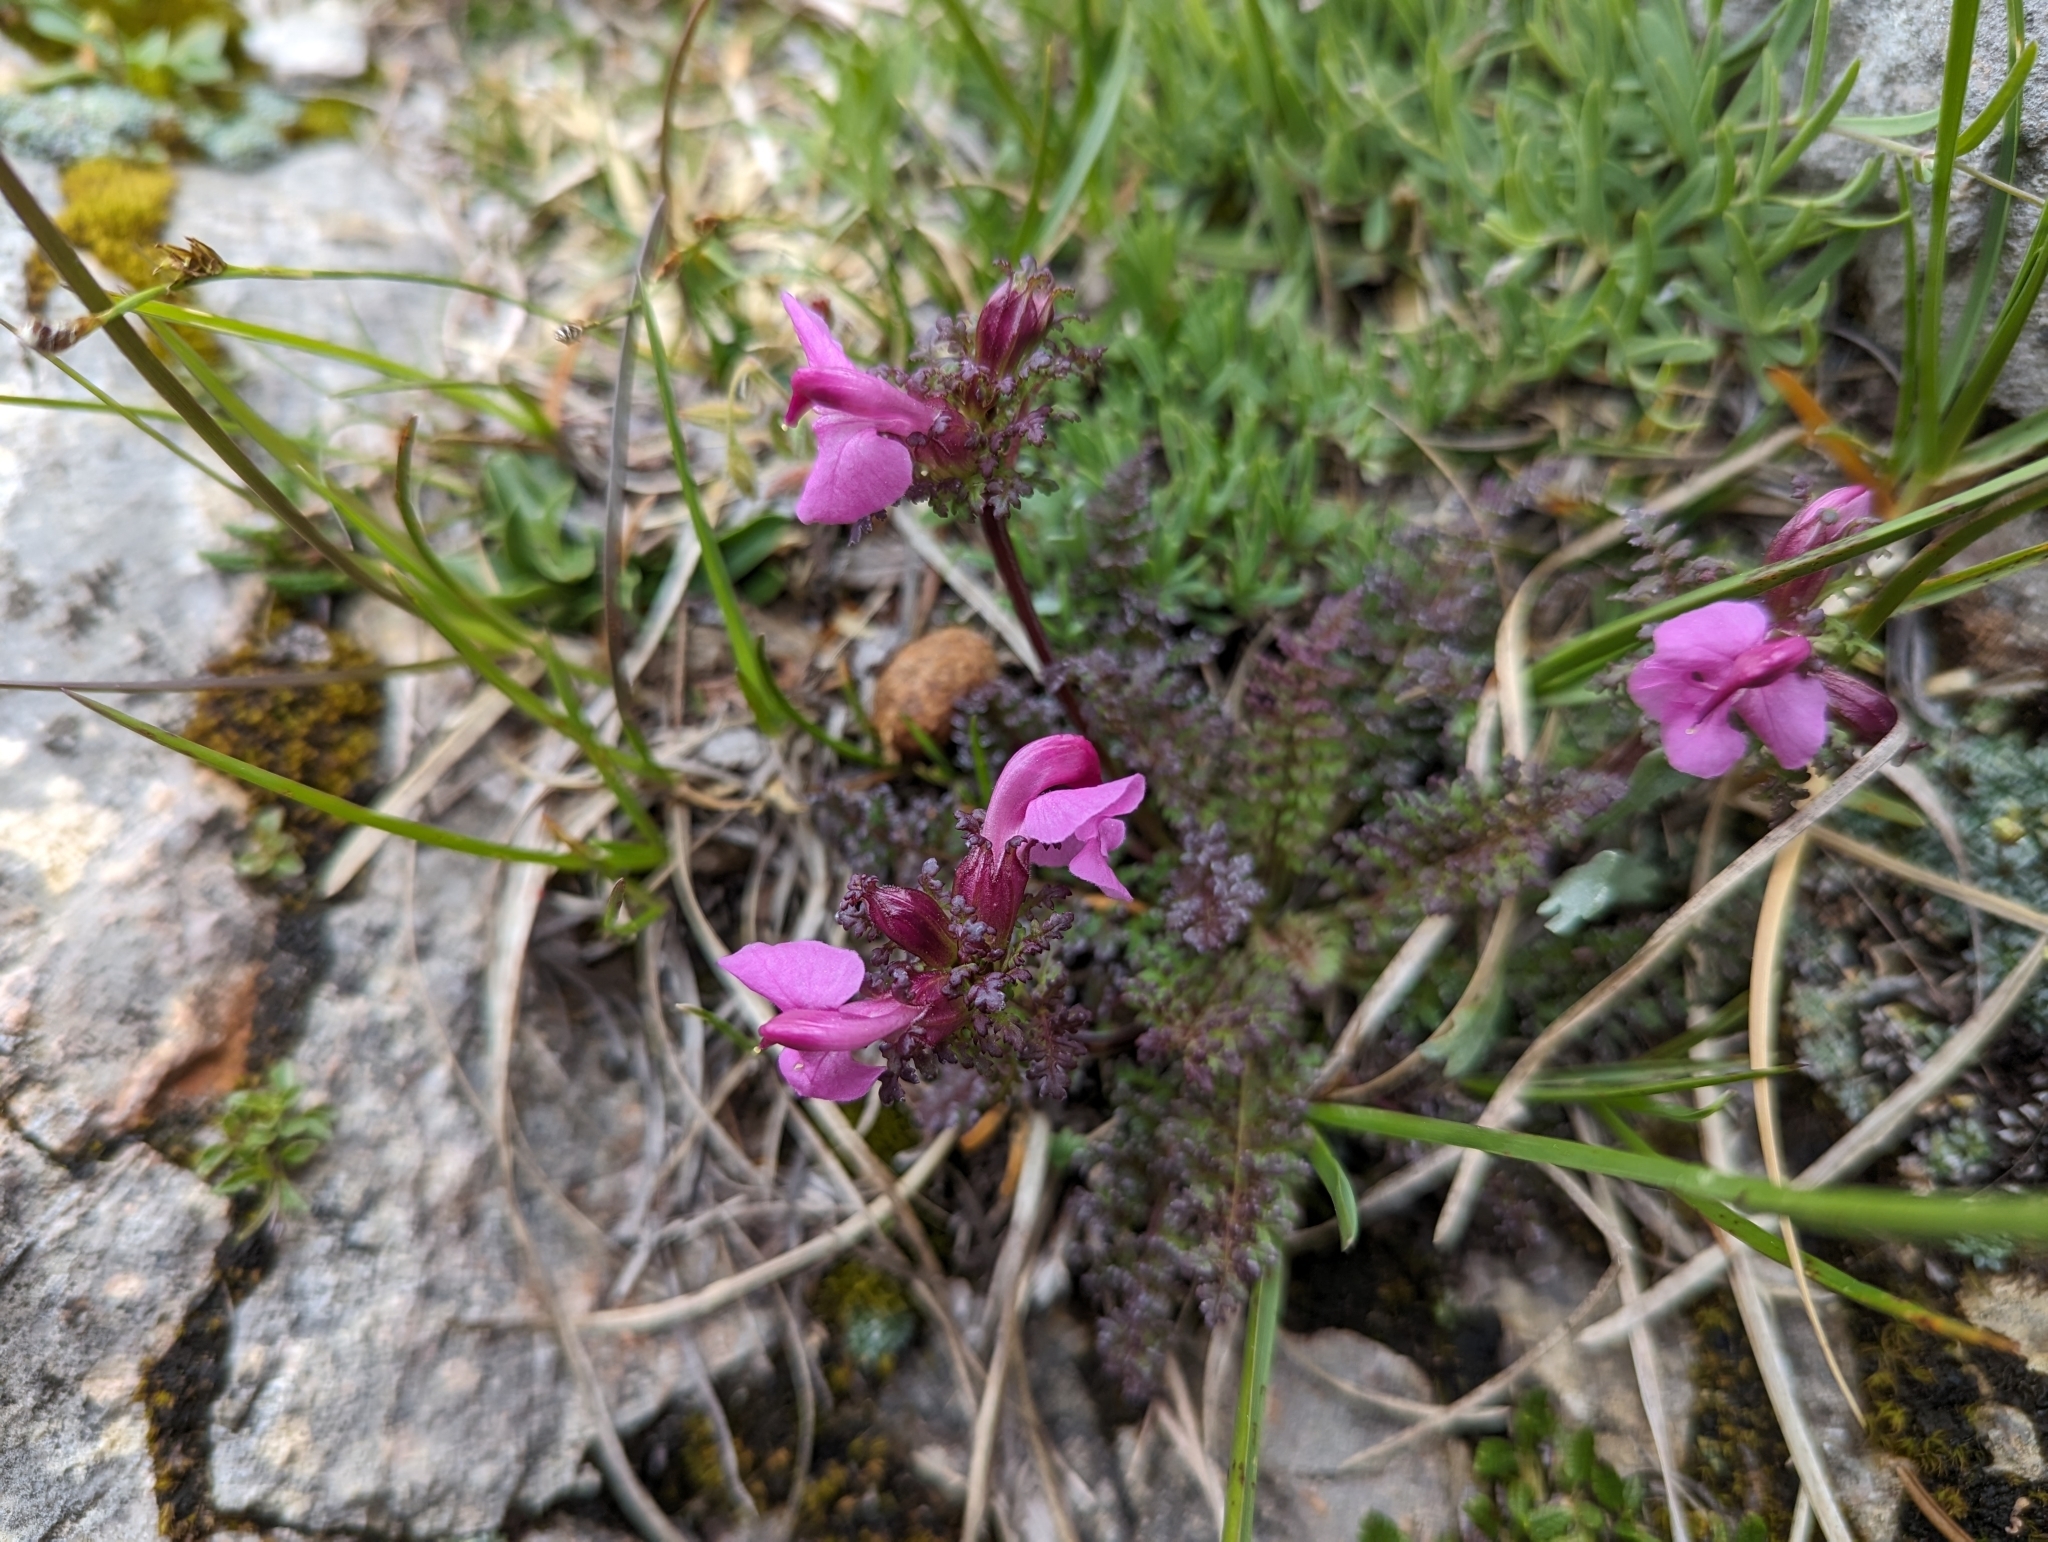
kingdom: Plantae
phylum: Tracheophyta
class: Magnoliopsida
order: Lamiales
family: Orobanchaceae
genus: Pedicularis
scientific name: Pedicularis rostratocapitata
